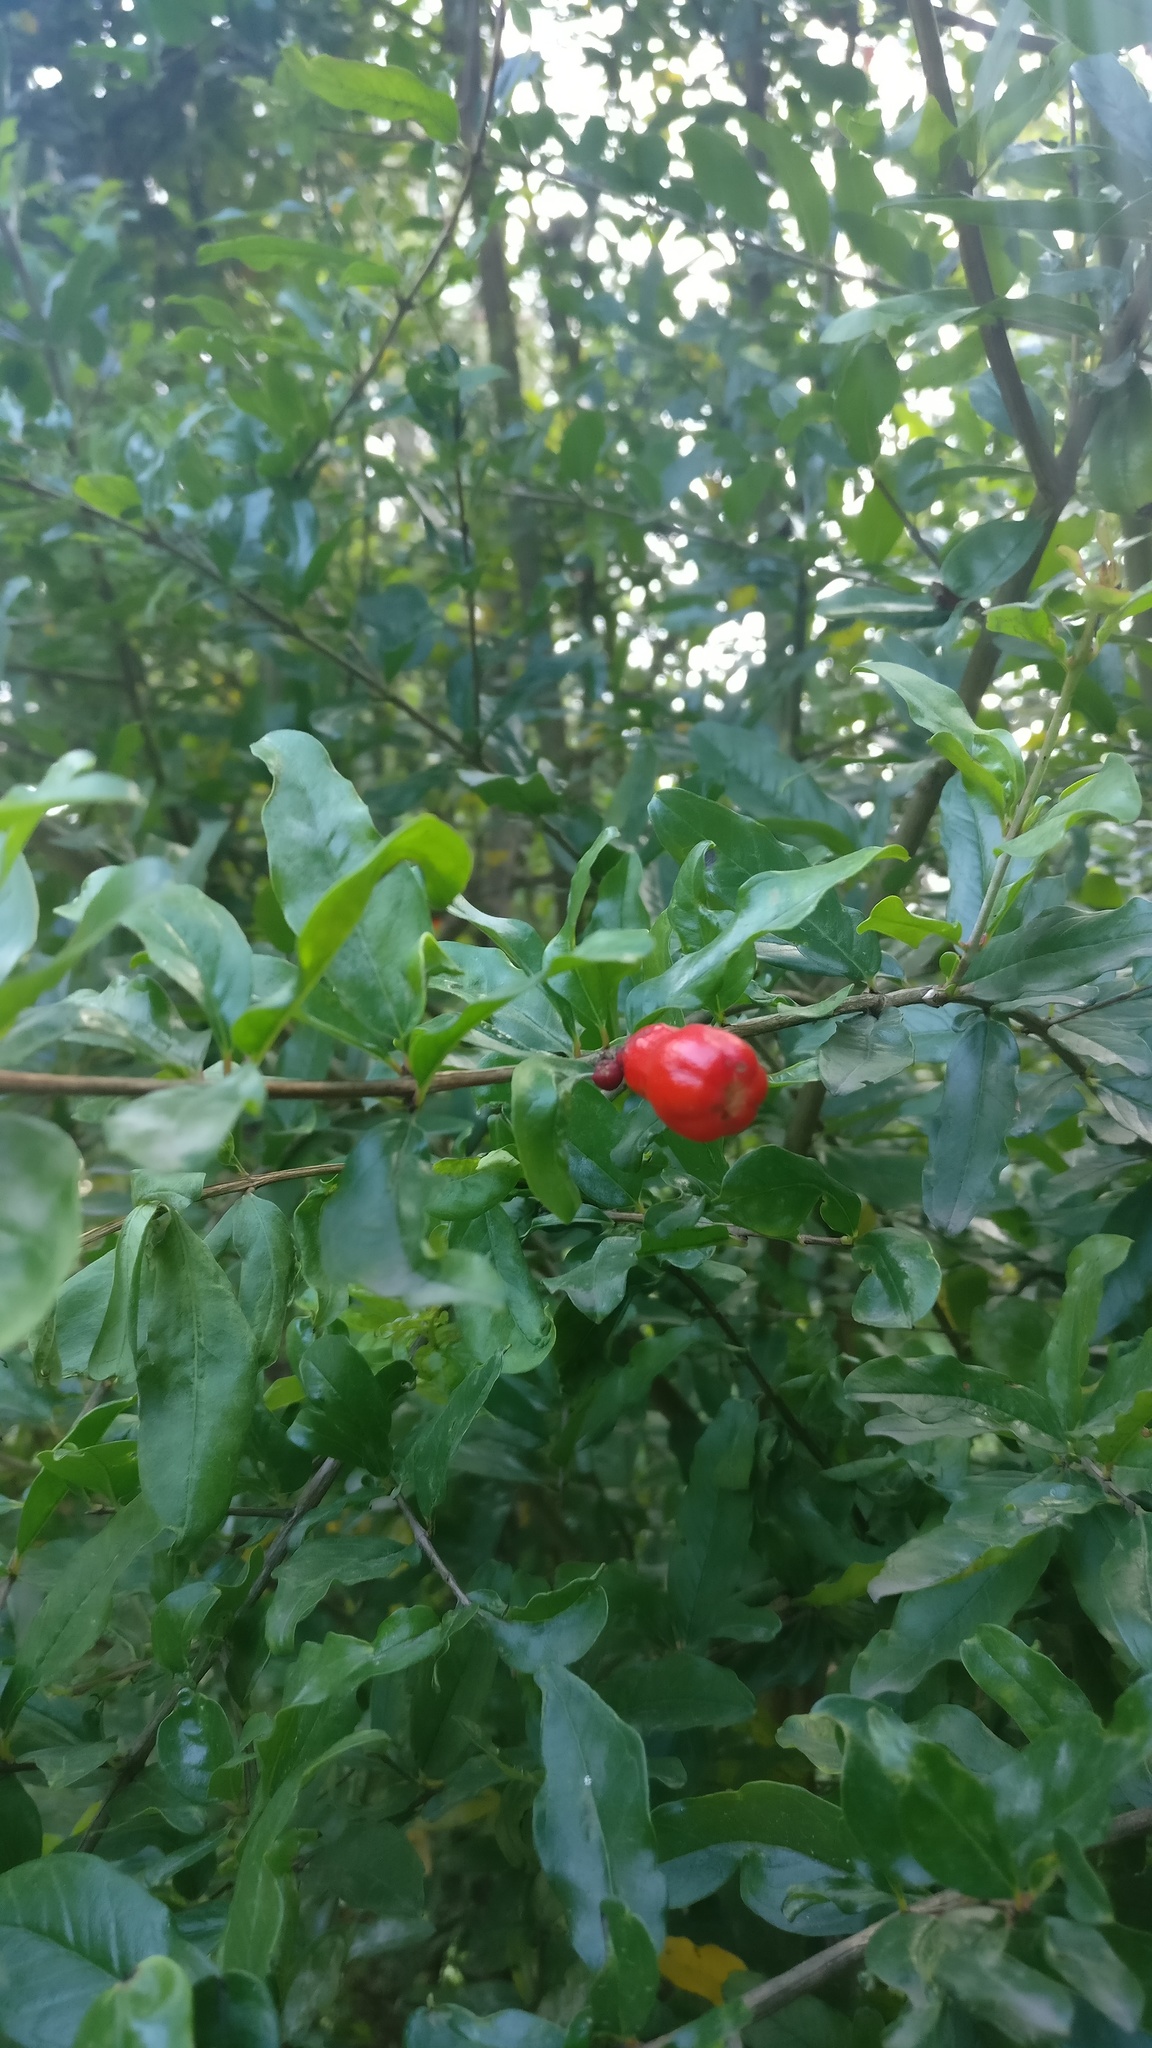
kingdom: Plantae
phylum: Tracheophyta
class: Magnoliopsida
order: Myrtales
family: Lythraceae
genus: Punica
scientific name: Punica granatum
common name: Pomegranate
